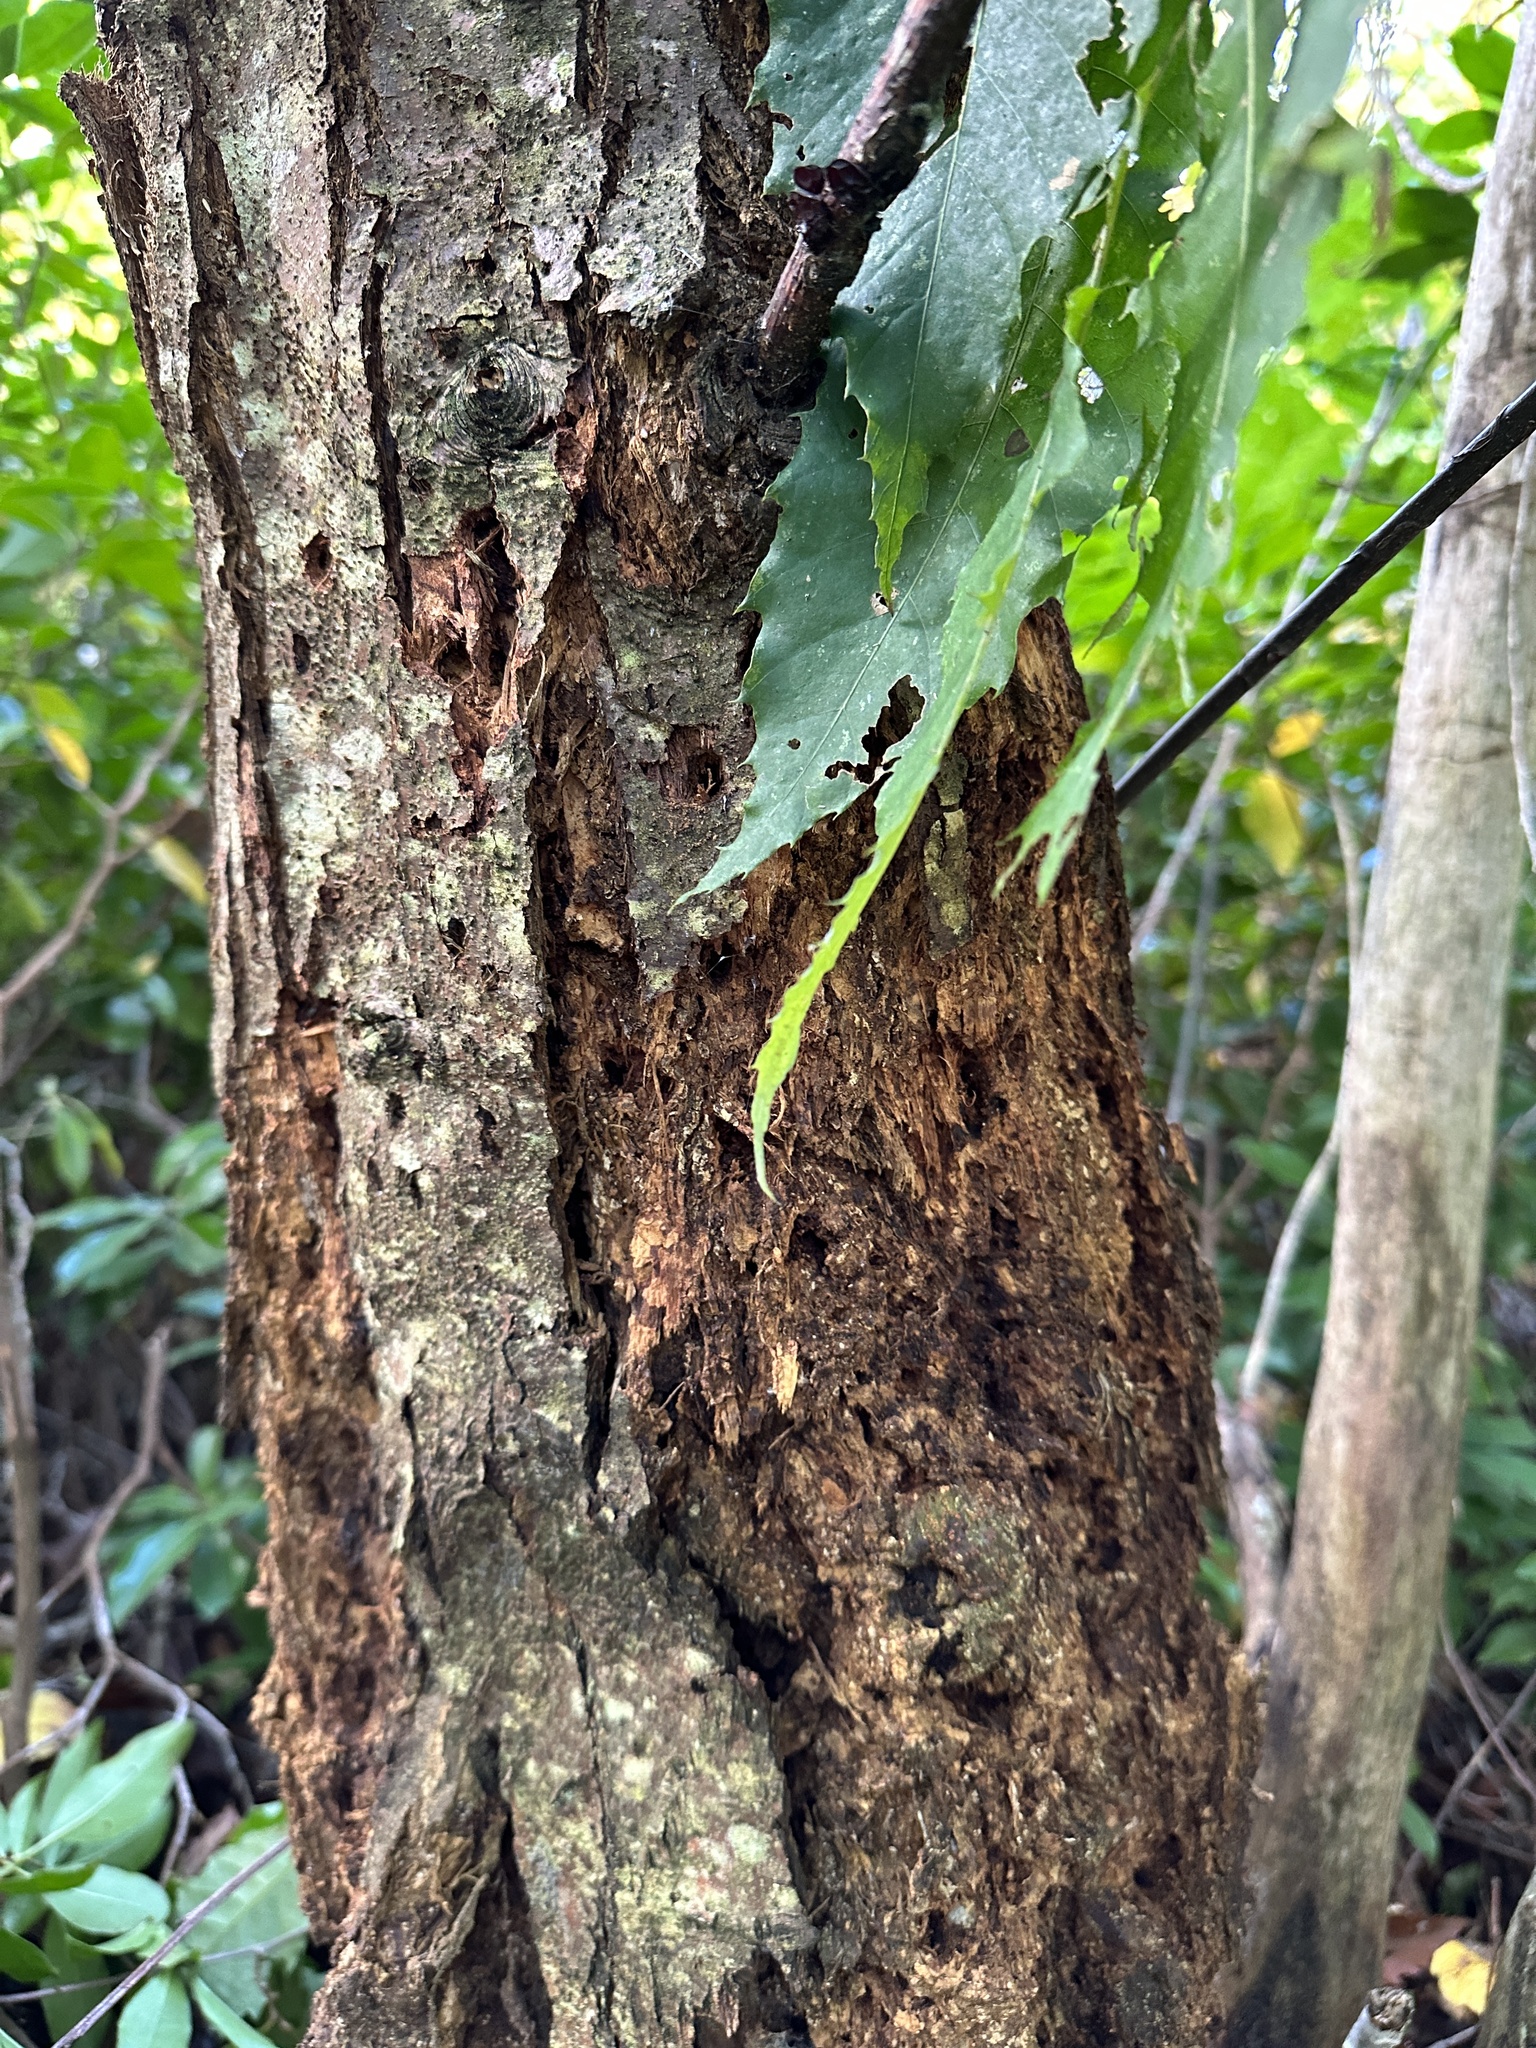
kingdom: Plantae
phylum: Tracheophyta
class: Magnoliopsida
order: Fagales
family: Fagaceae
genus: Castanea
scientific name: Castanea dentata
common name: American chestnut
